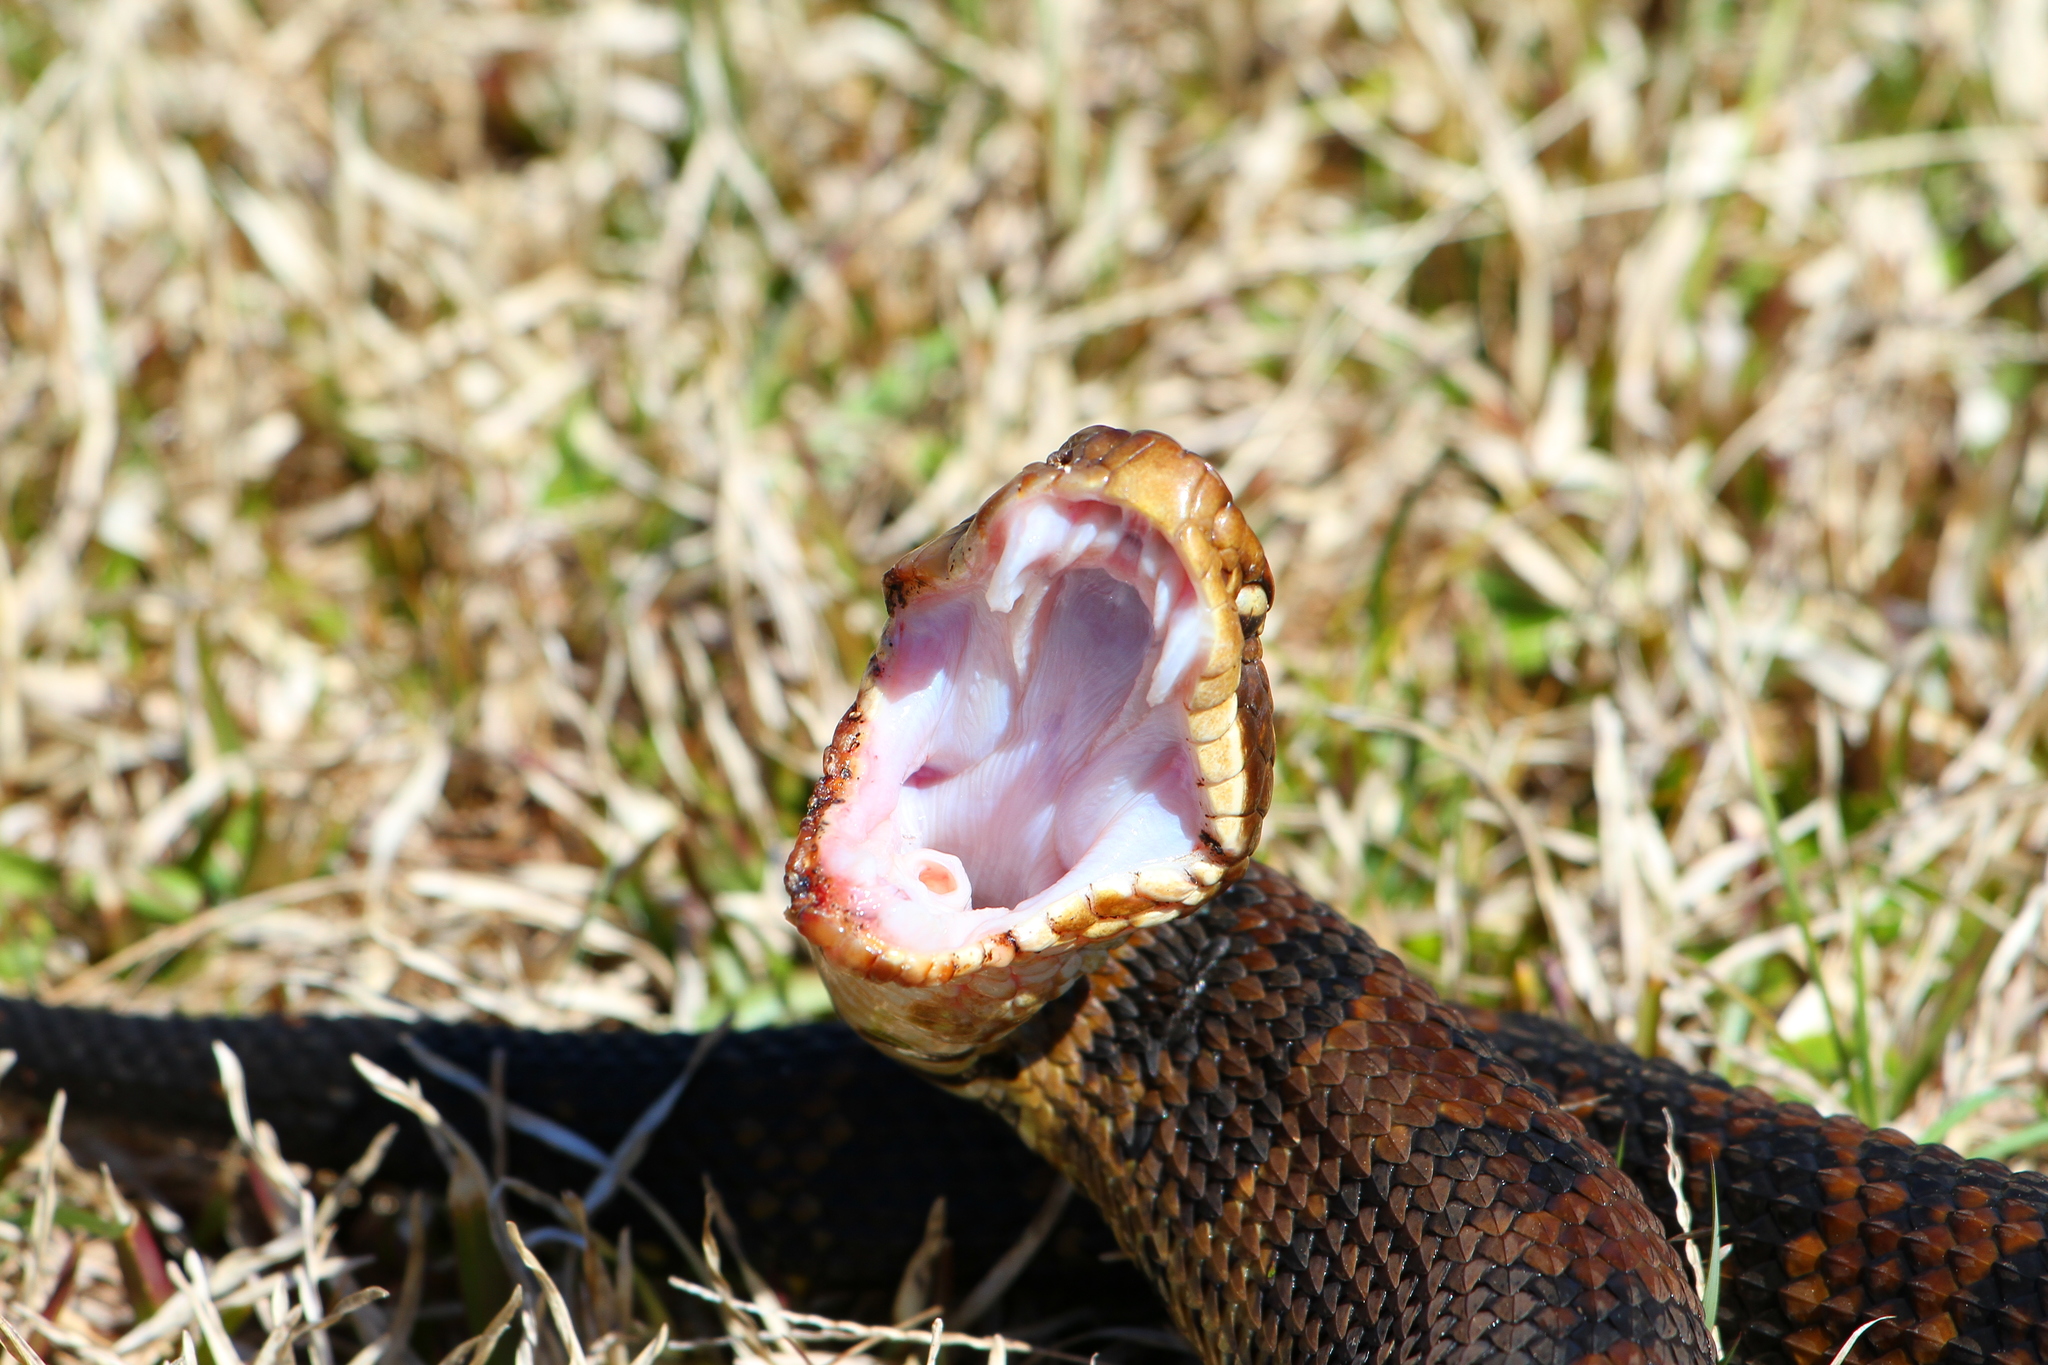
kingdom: Animalia
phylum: Chordata
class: Squamata
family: Viperidae
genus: Agkistrodon
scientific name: Agkistrodon piscivorus
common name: Cottonmouth
